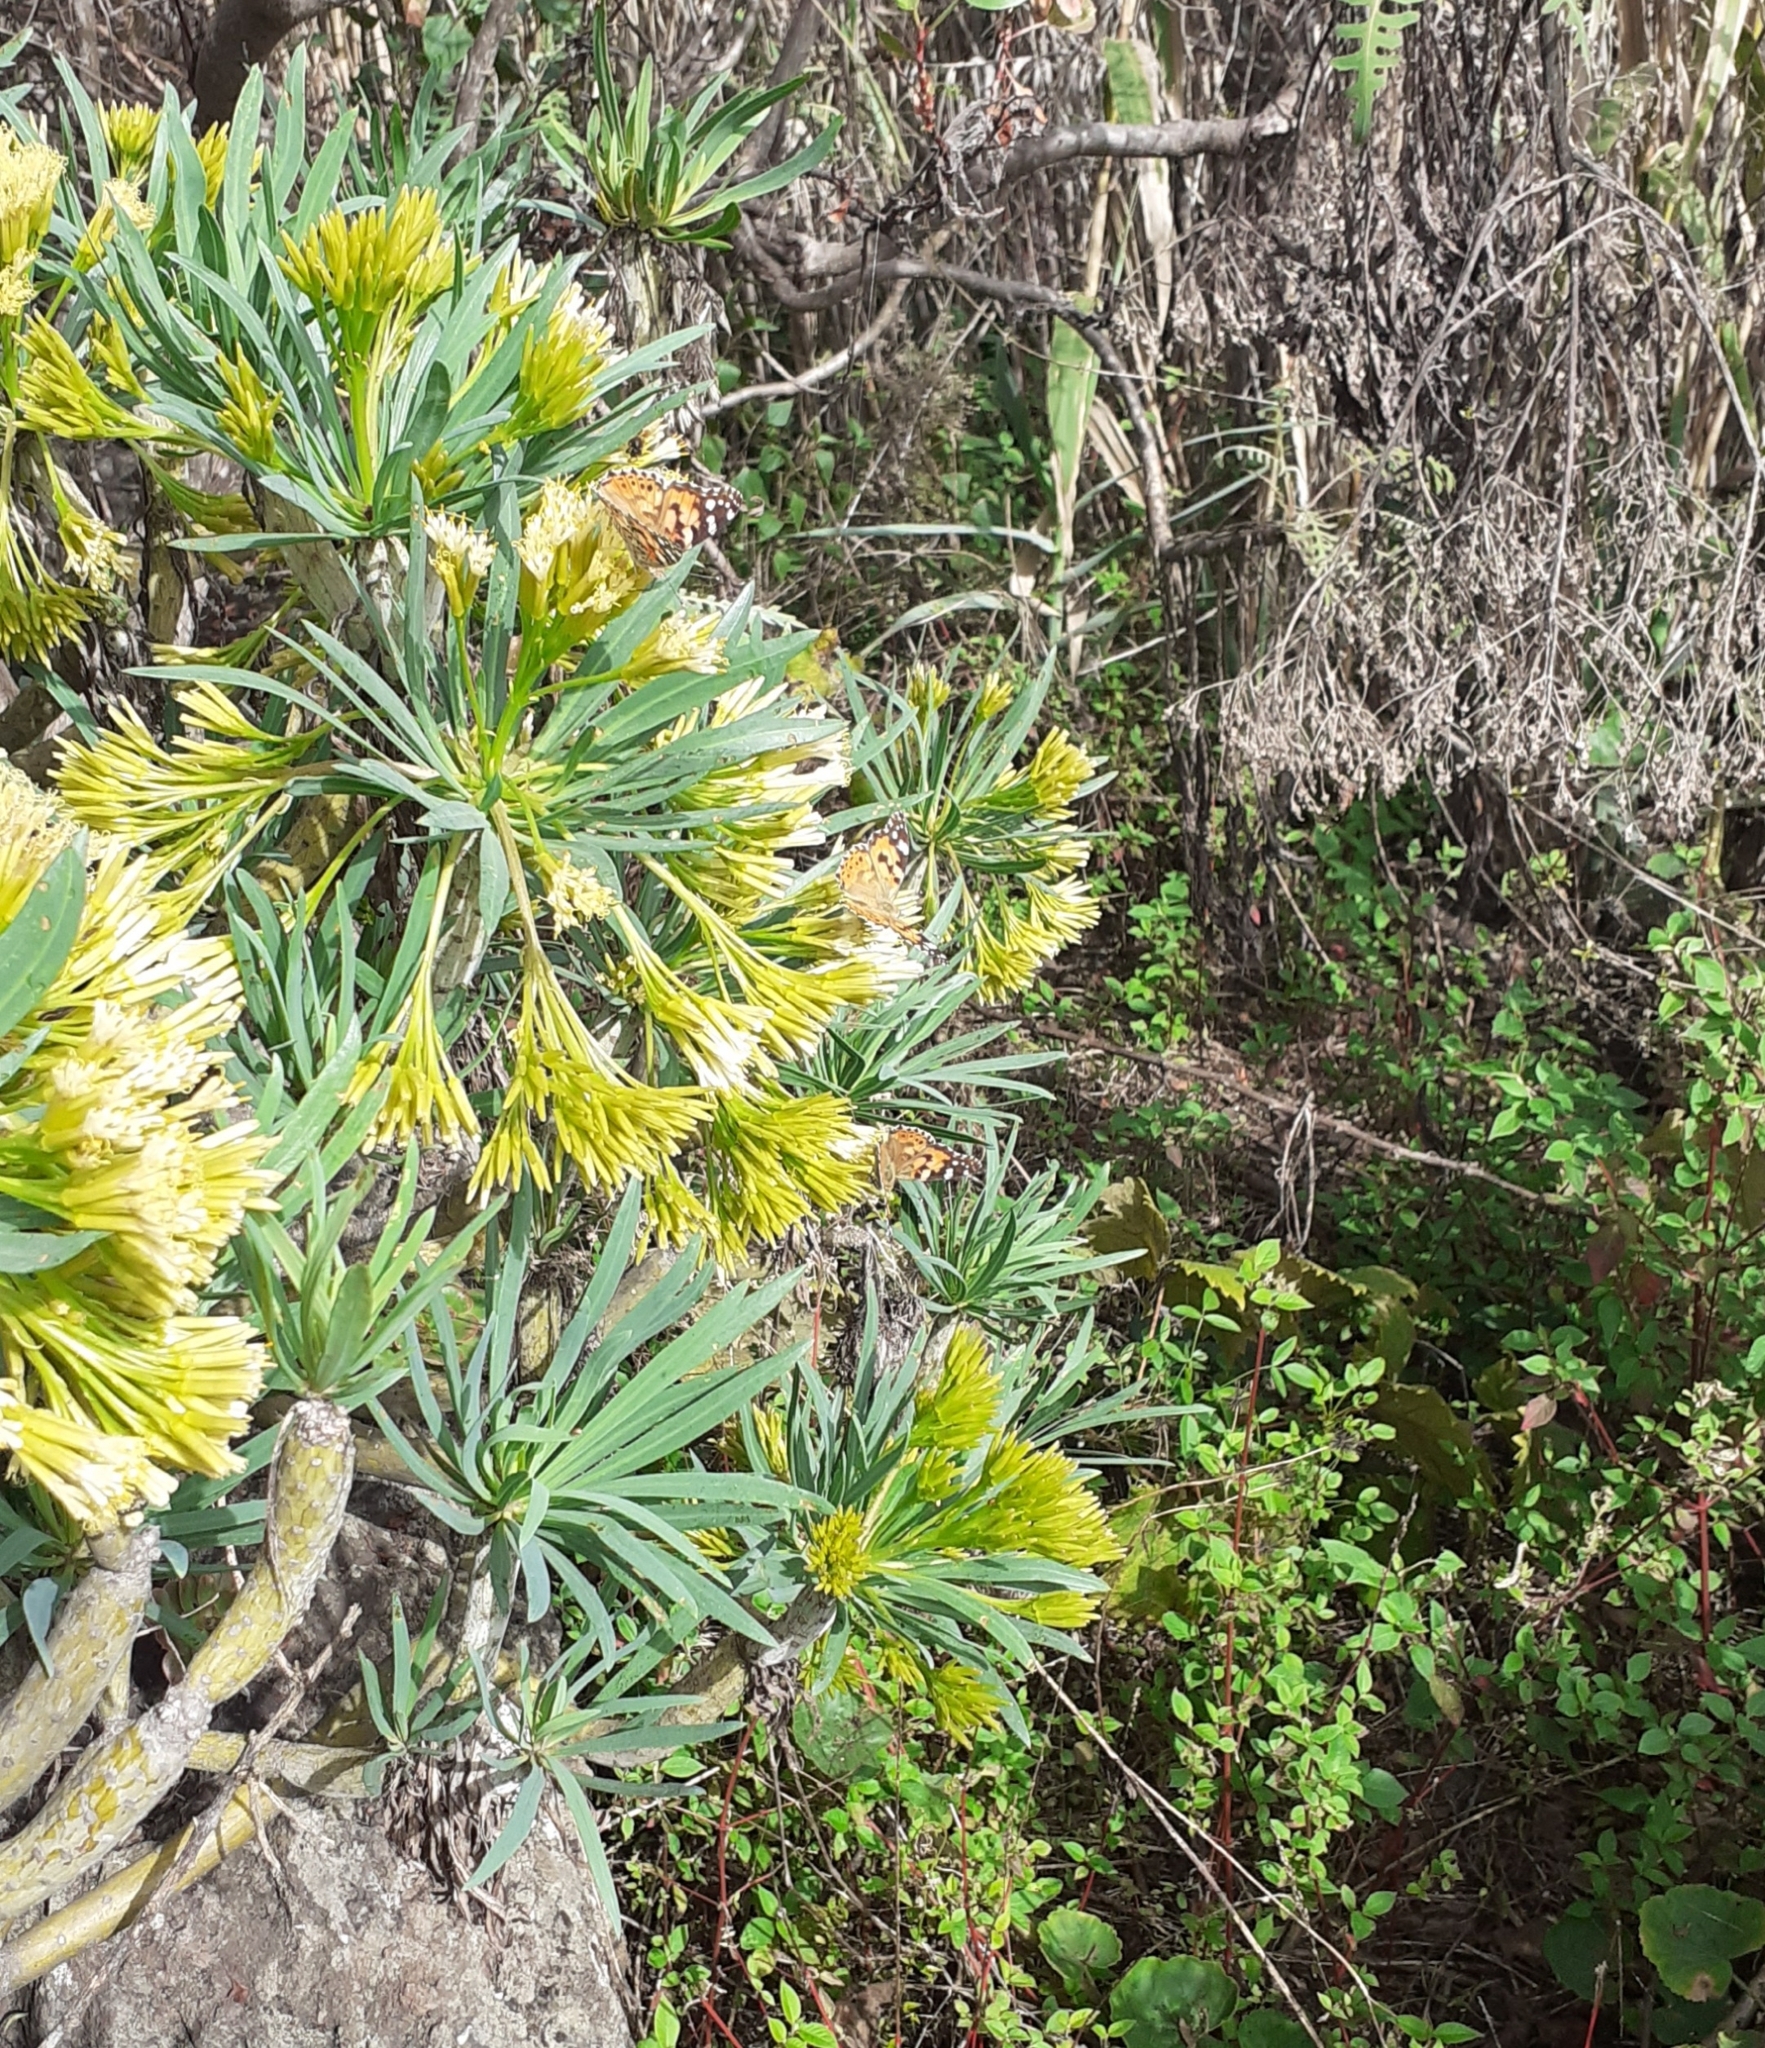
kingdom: Animalia
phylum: Arthropoda
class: Insecta
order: Lepidoptera
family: Nymphalidae
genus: Vanessa
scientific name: Vanessa cardui
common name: Painted lady
